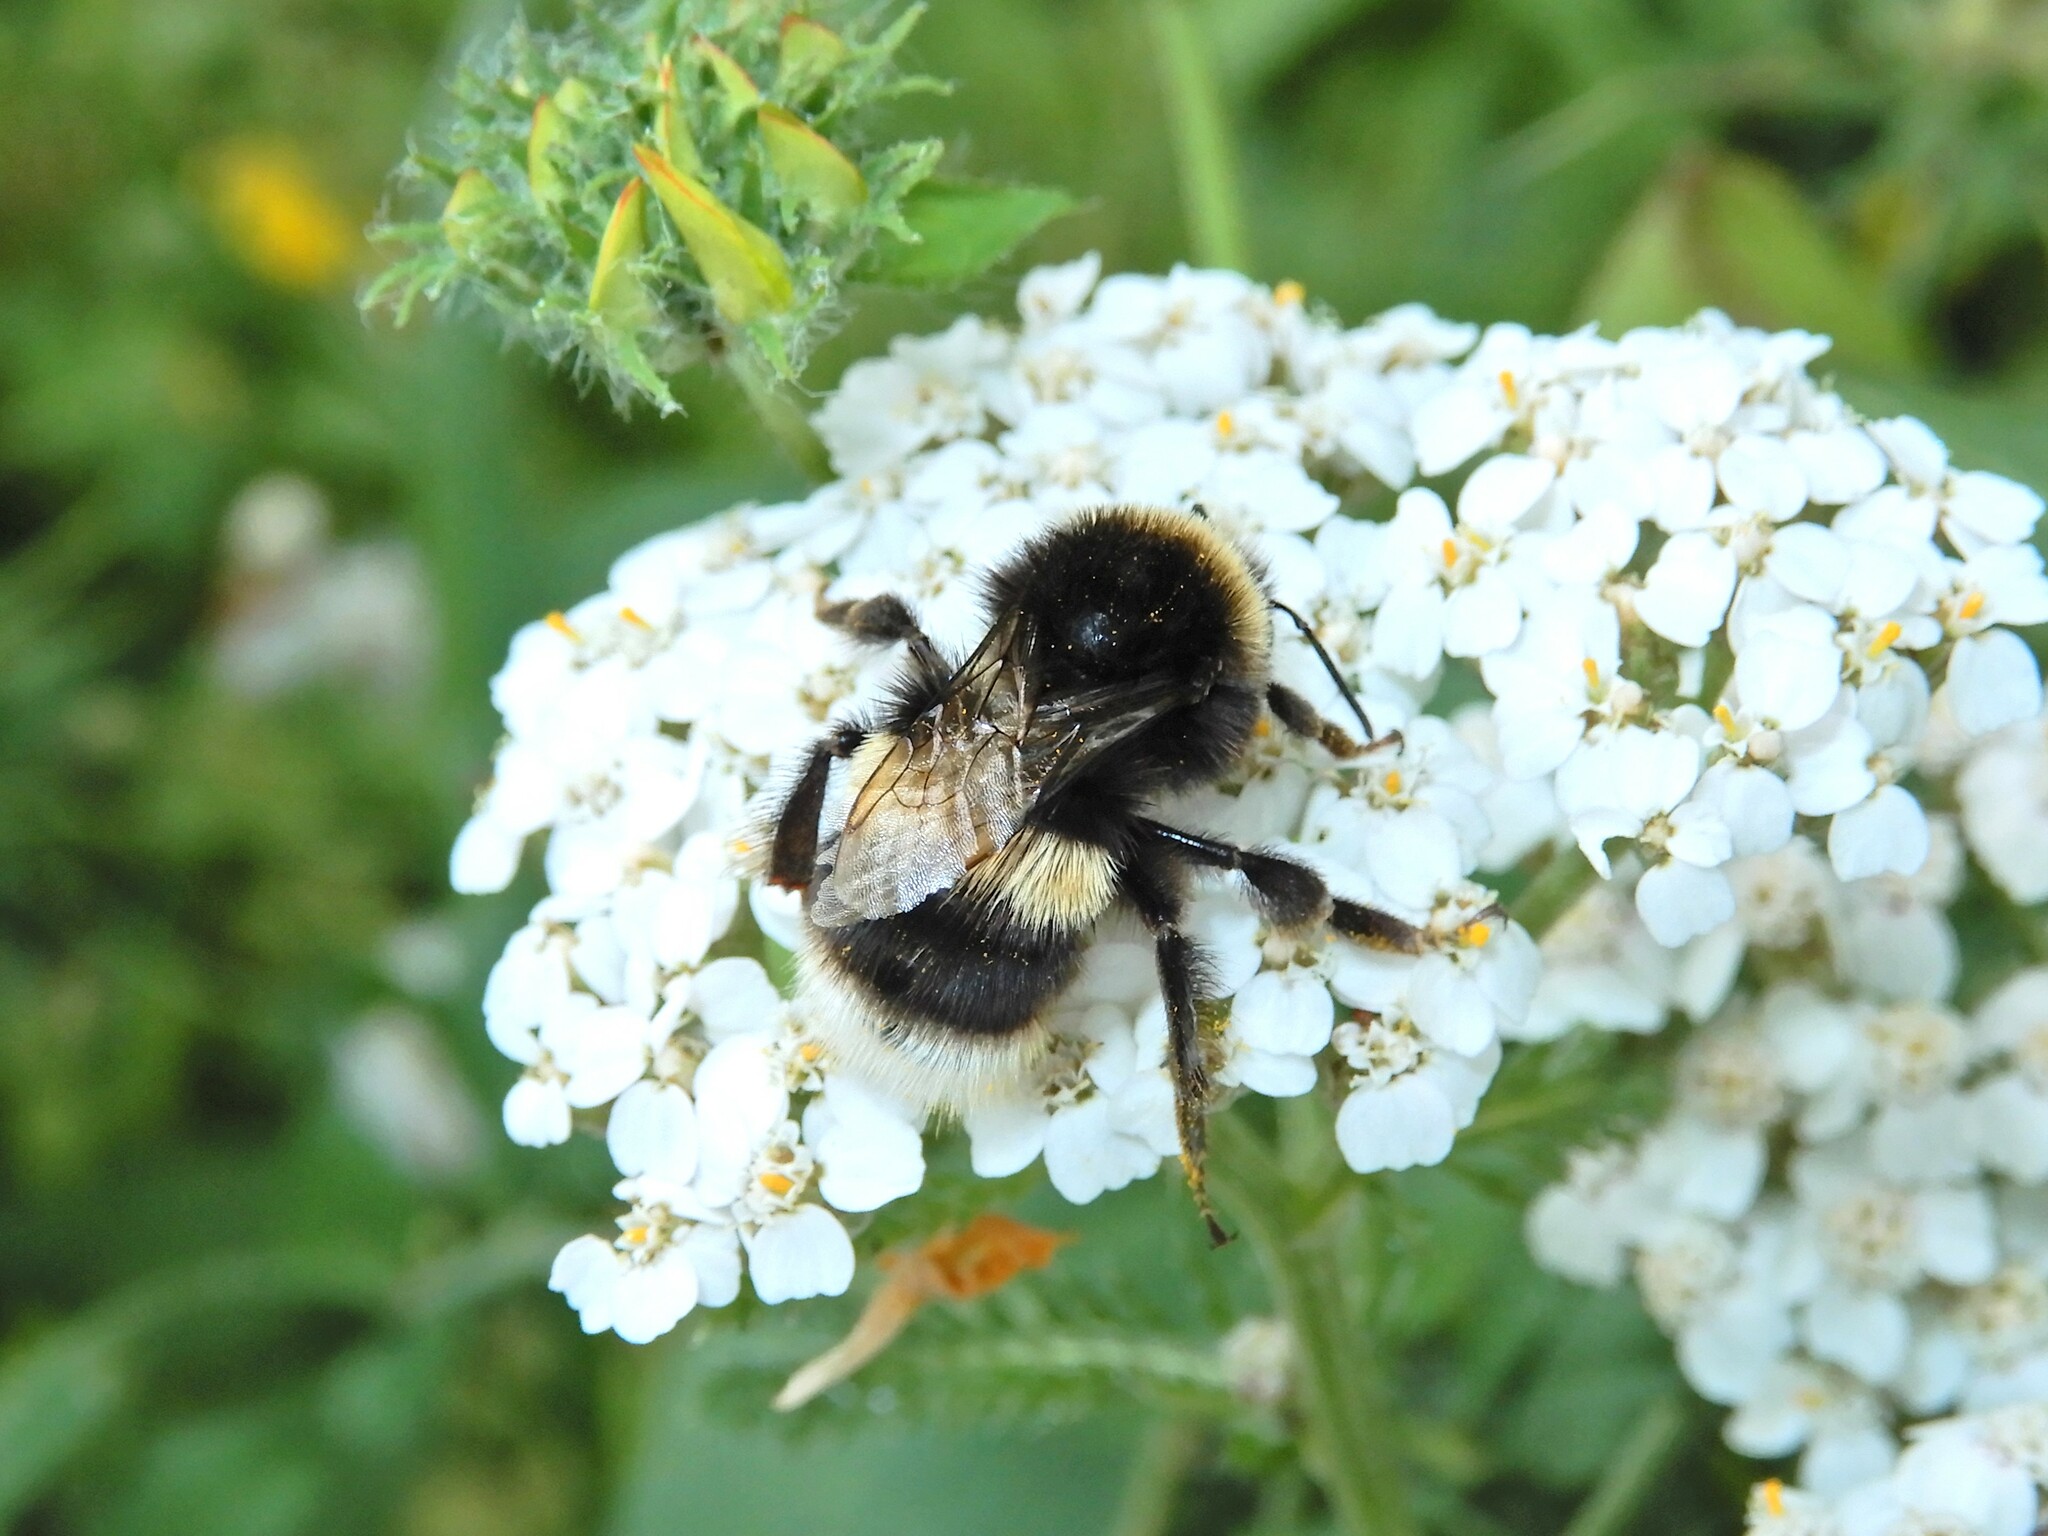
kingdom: Animalia
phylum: Arthropoda
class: Insecta
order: Hymenoptera
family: Apidae
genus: Bombus
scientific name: Bombus terrestris
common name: Buff-tailed bumblebee
